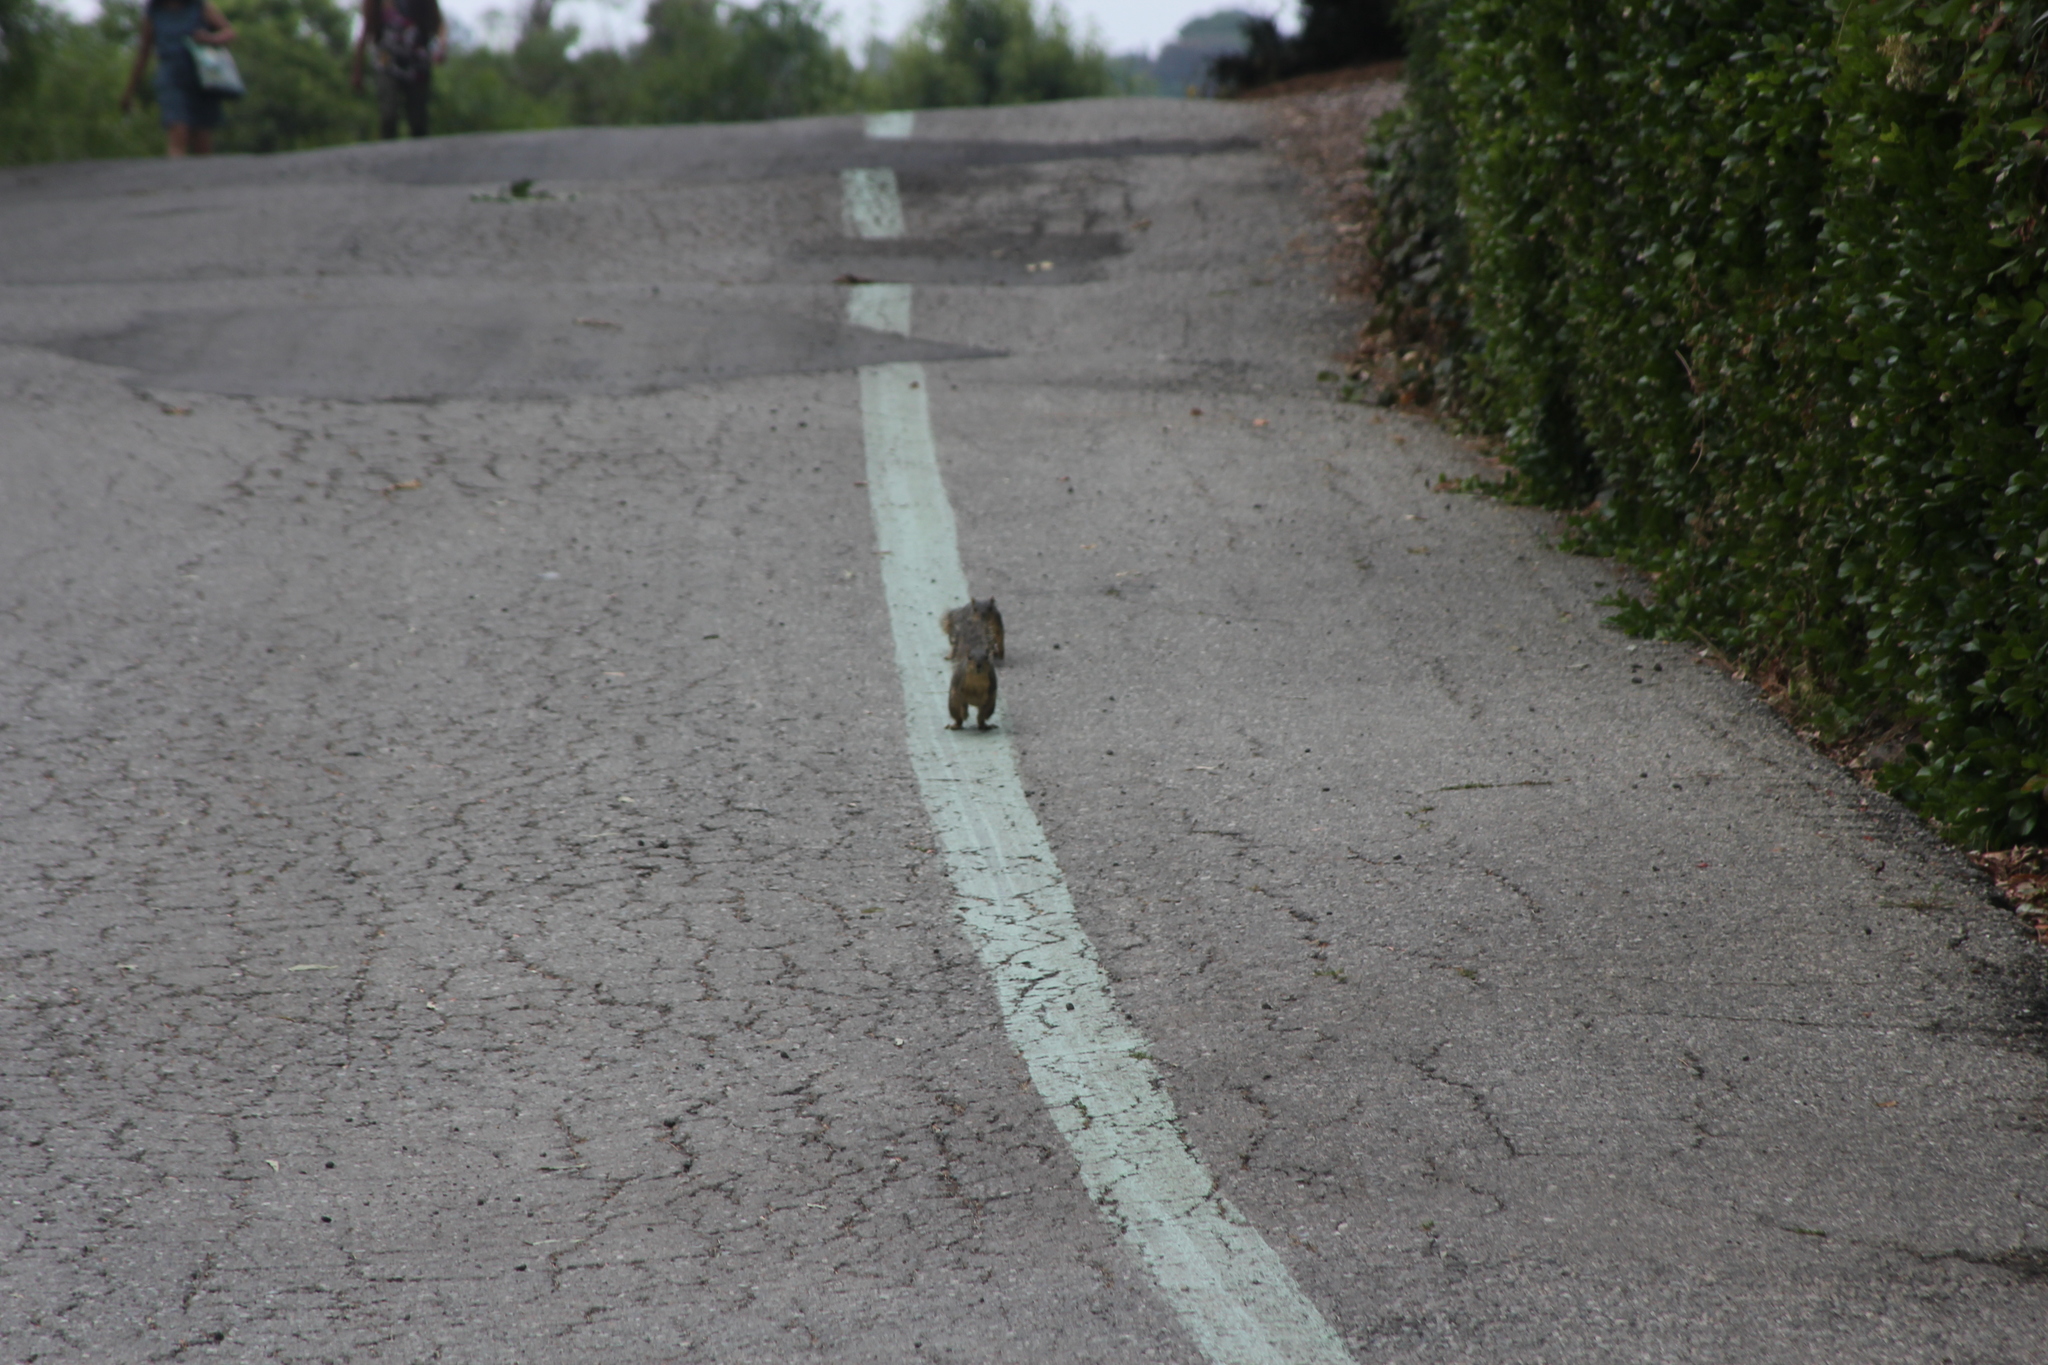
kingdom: Animalia
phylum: Chordata
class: Mammalia
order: Rodentia
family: Sciuridae
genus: Sciurus
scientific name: Sciurus niger
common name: Fox squirrel
